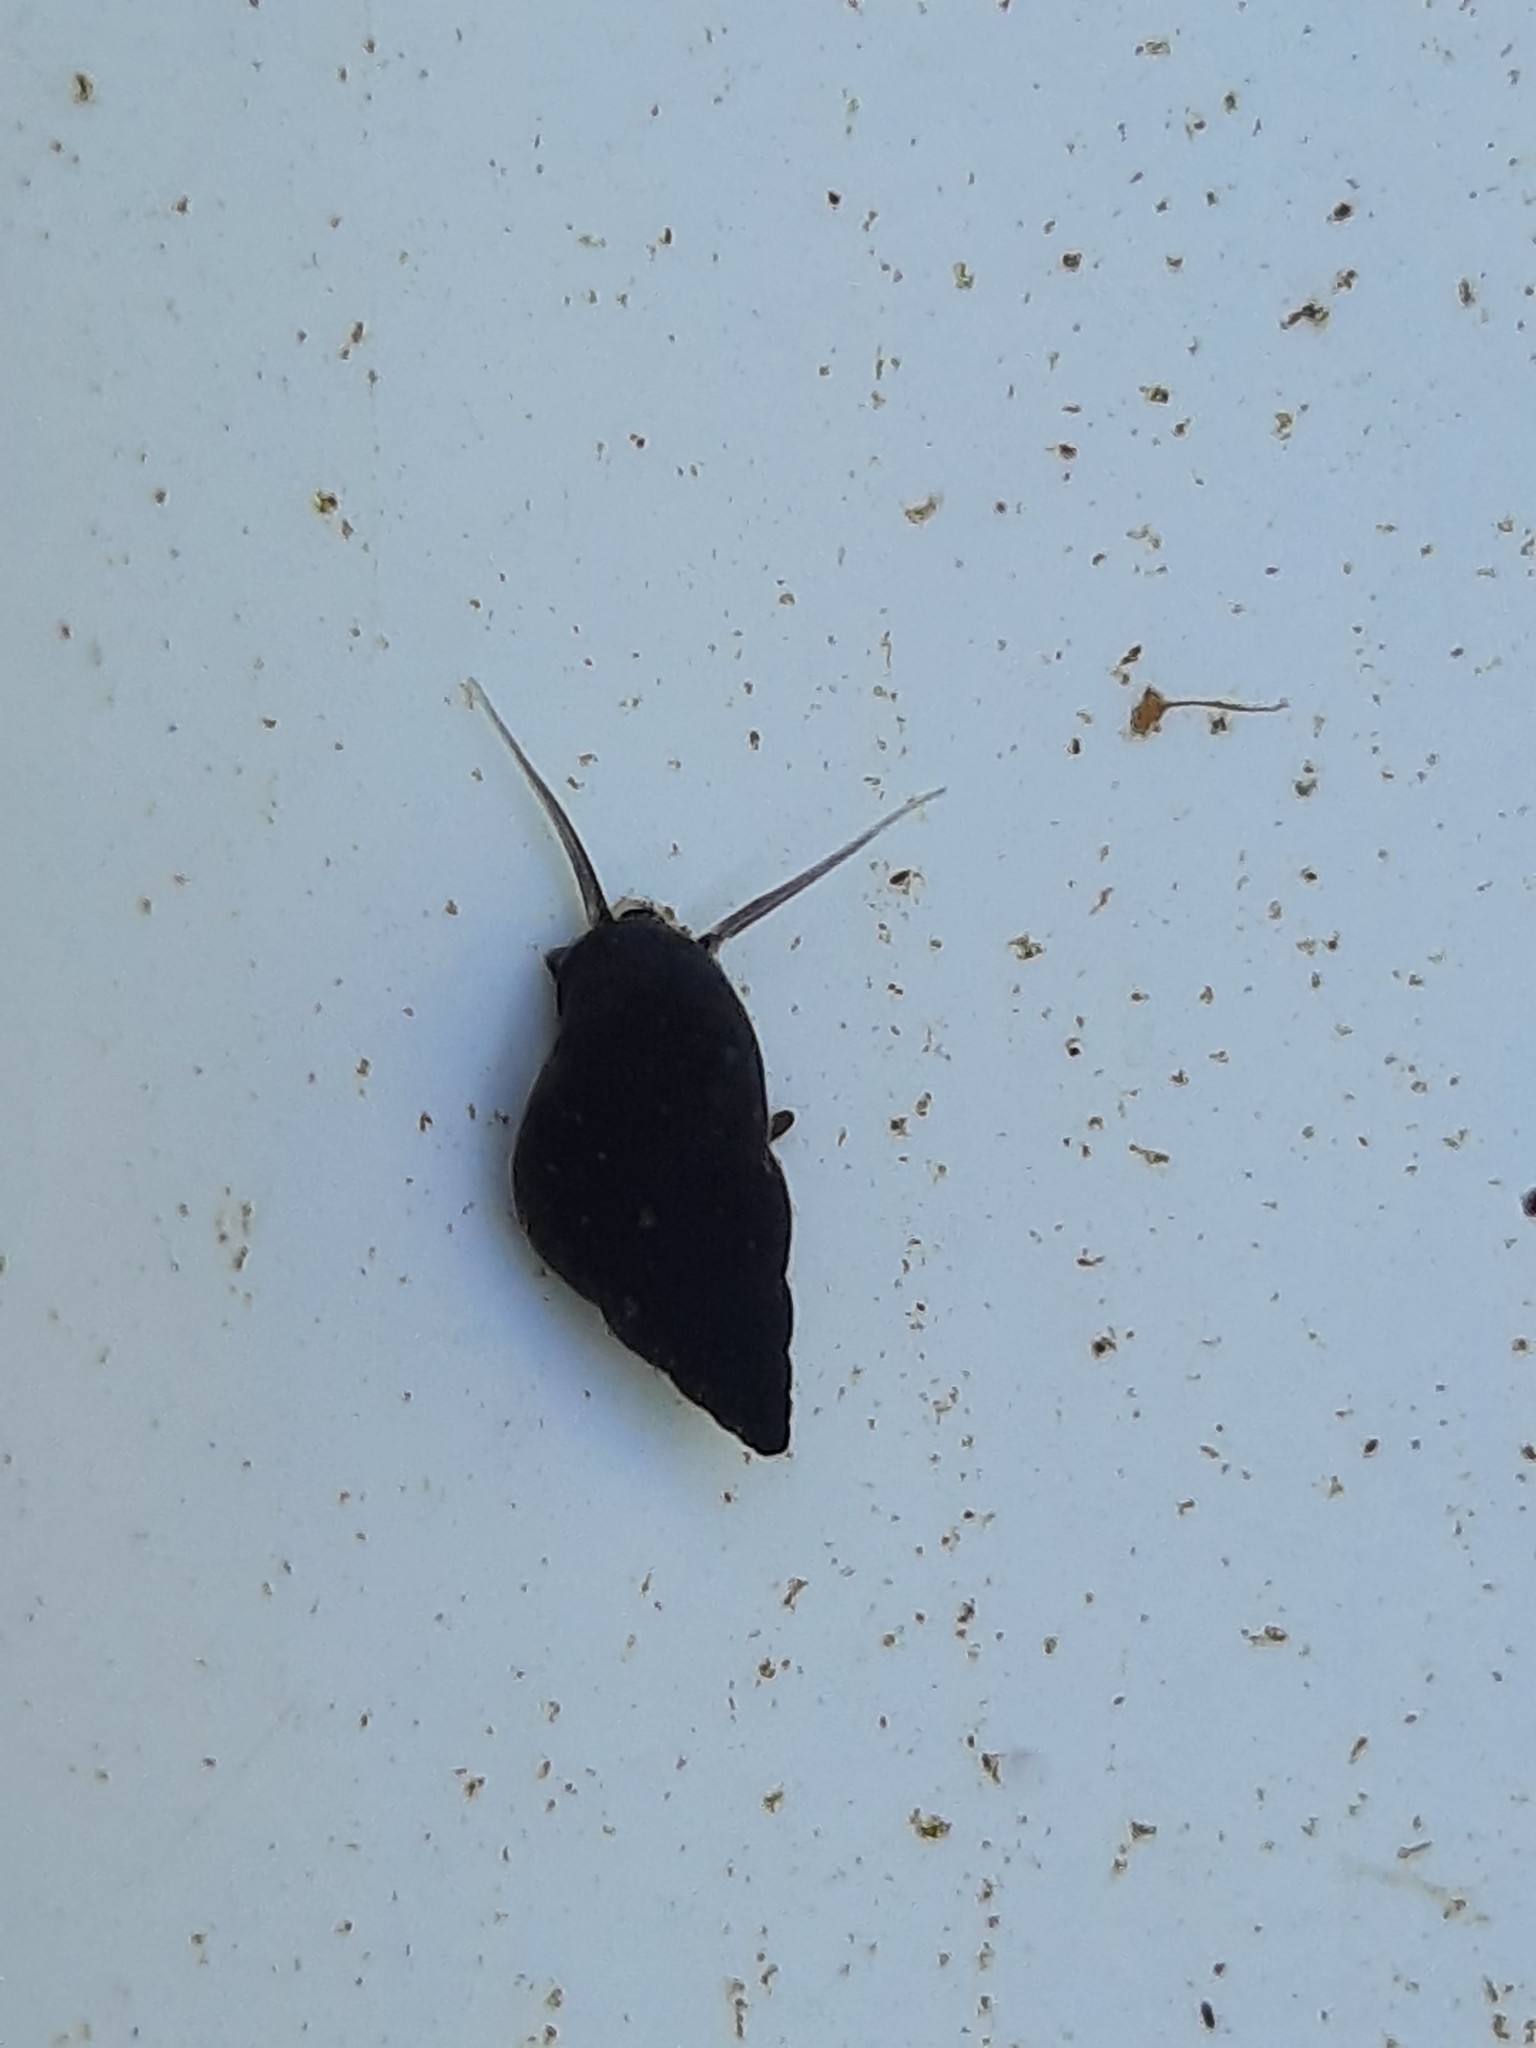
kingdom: Animalia
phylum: Mollusca
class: Gastropoda
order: Littorinimorpha
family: Tateidae
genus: Potamopyrgus
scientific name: Potamopyrgus antipodarum
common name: Jenkins' spire snail
